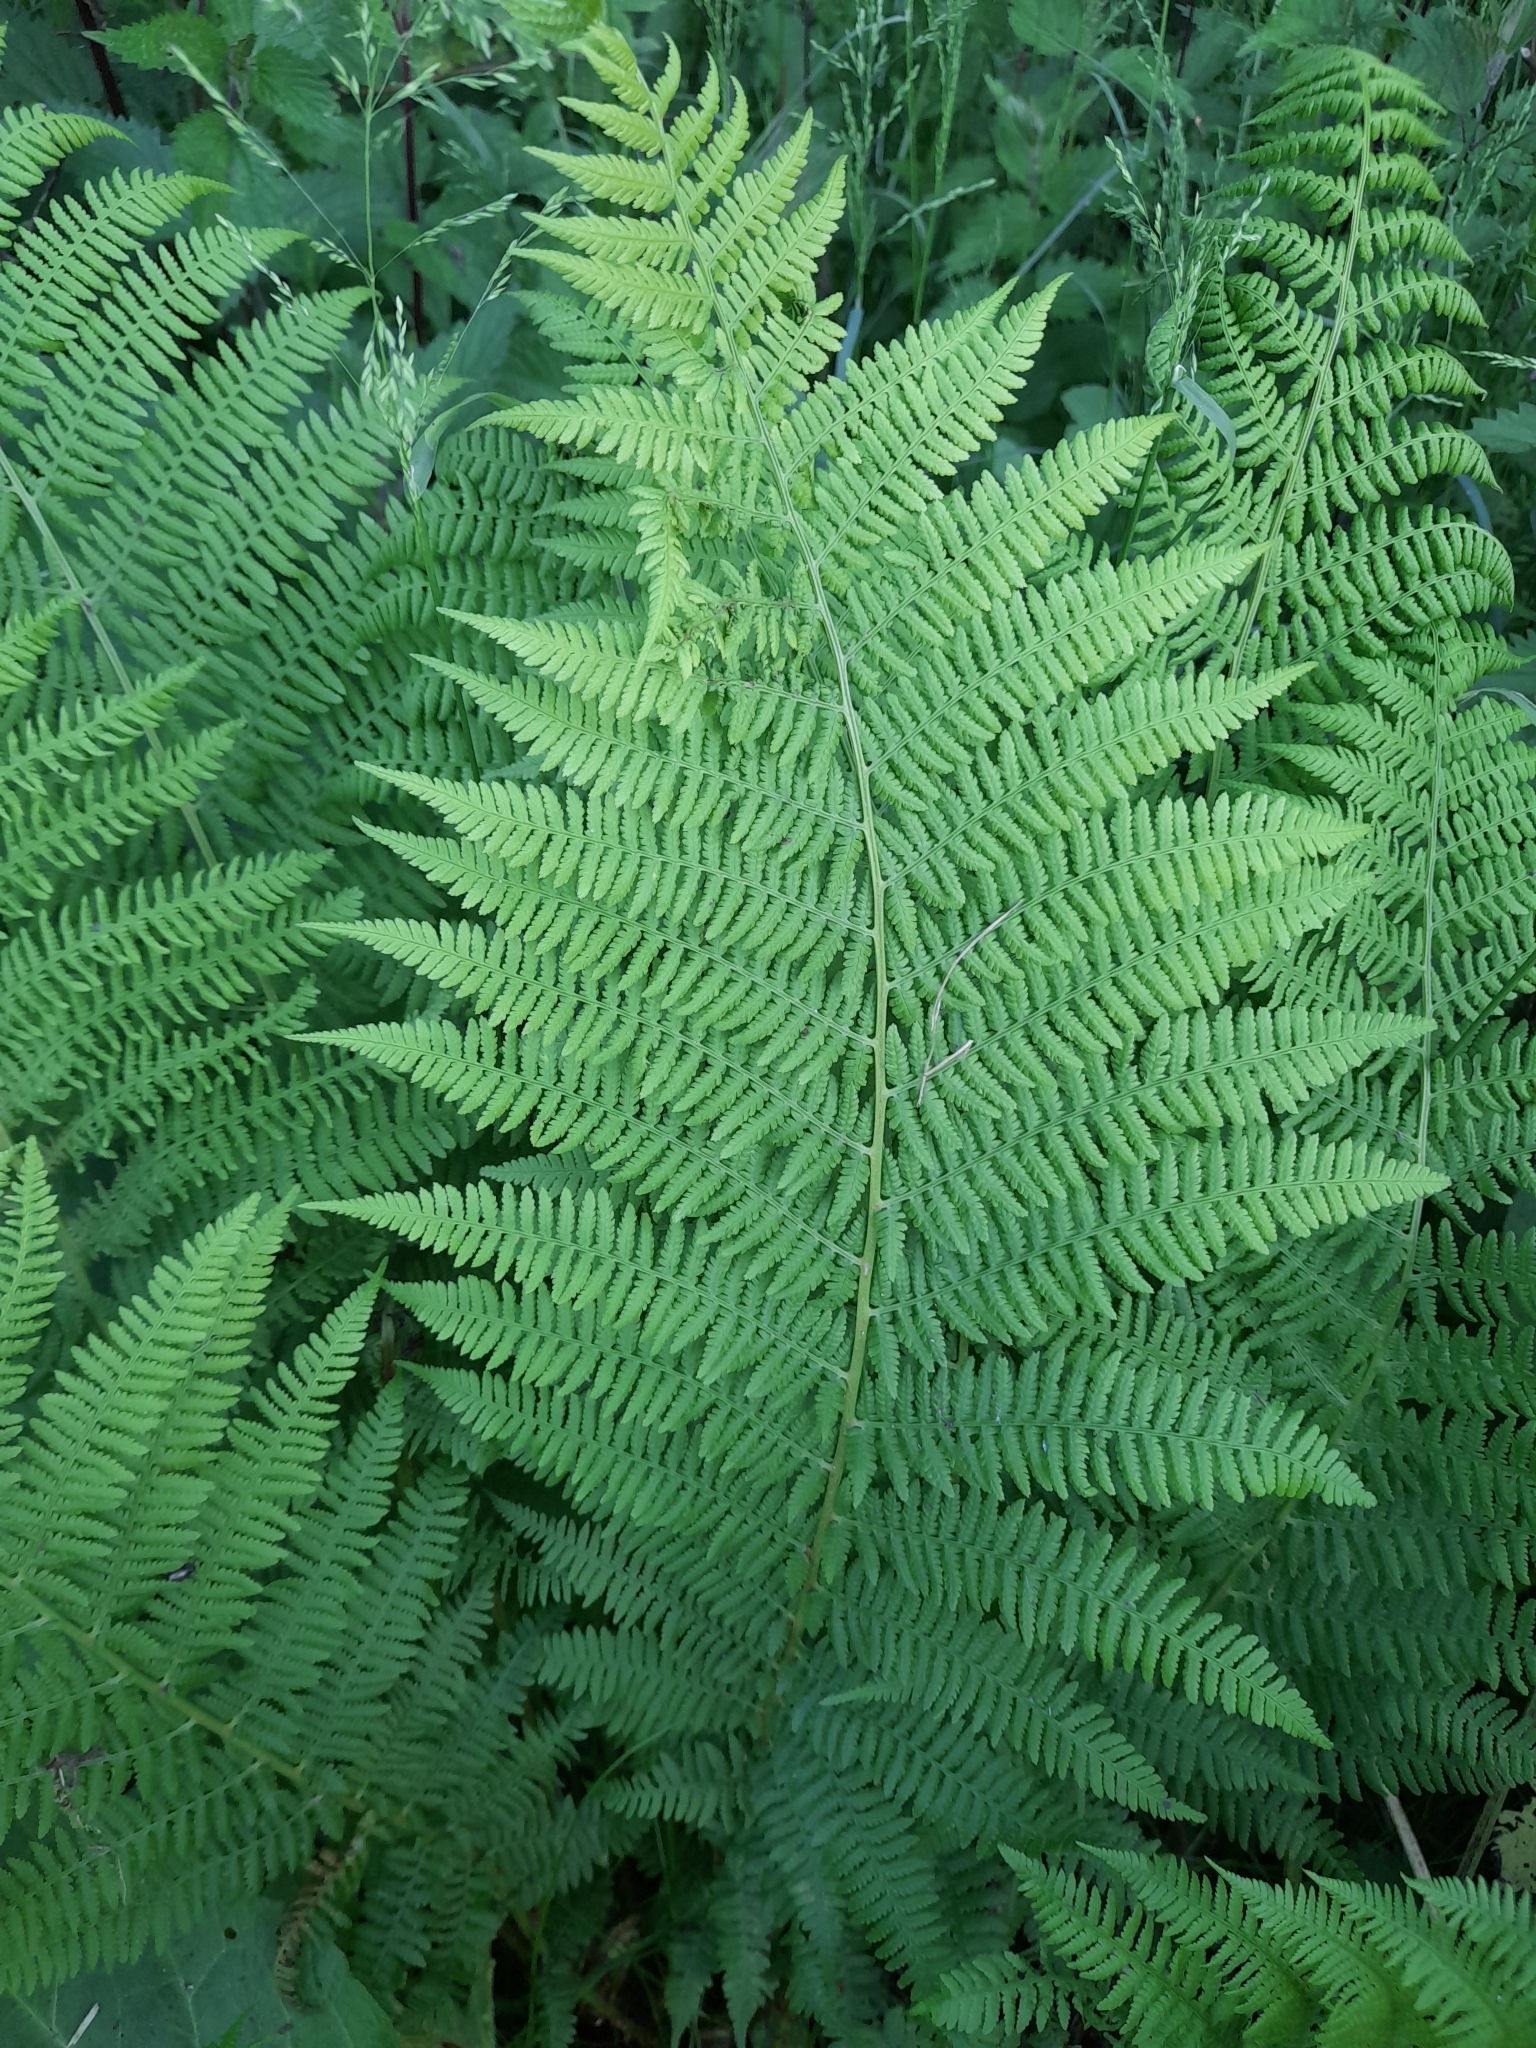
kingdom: Plantae
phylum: Tracheophyta
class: Polypodiopsida
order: Polypodiales
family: Athyriaceae
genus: Athyrium
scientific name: Athyrium filix-femina
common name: Lady fern
